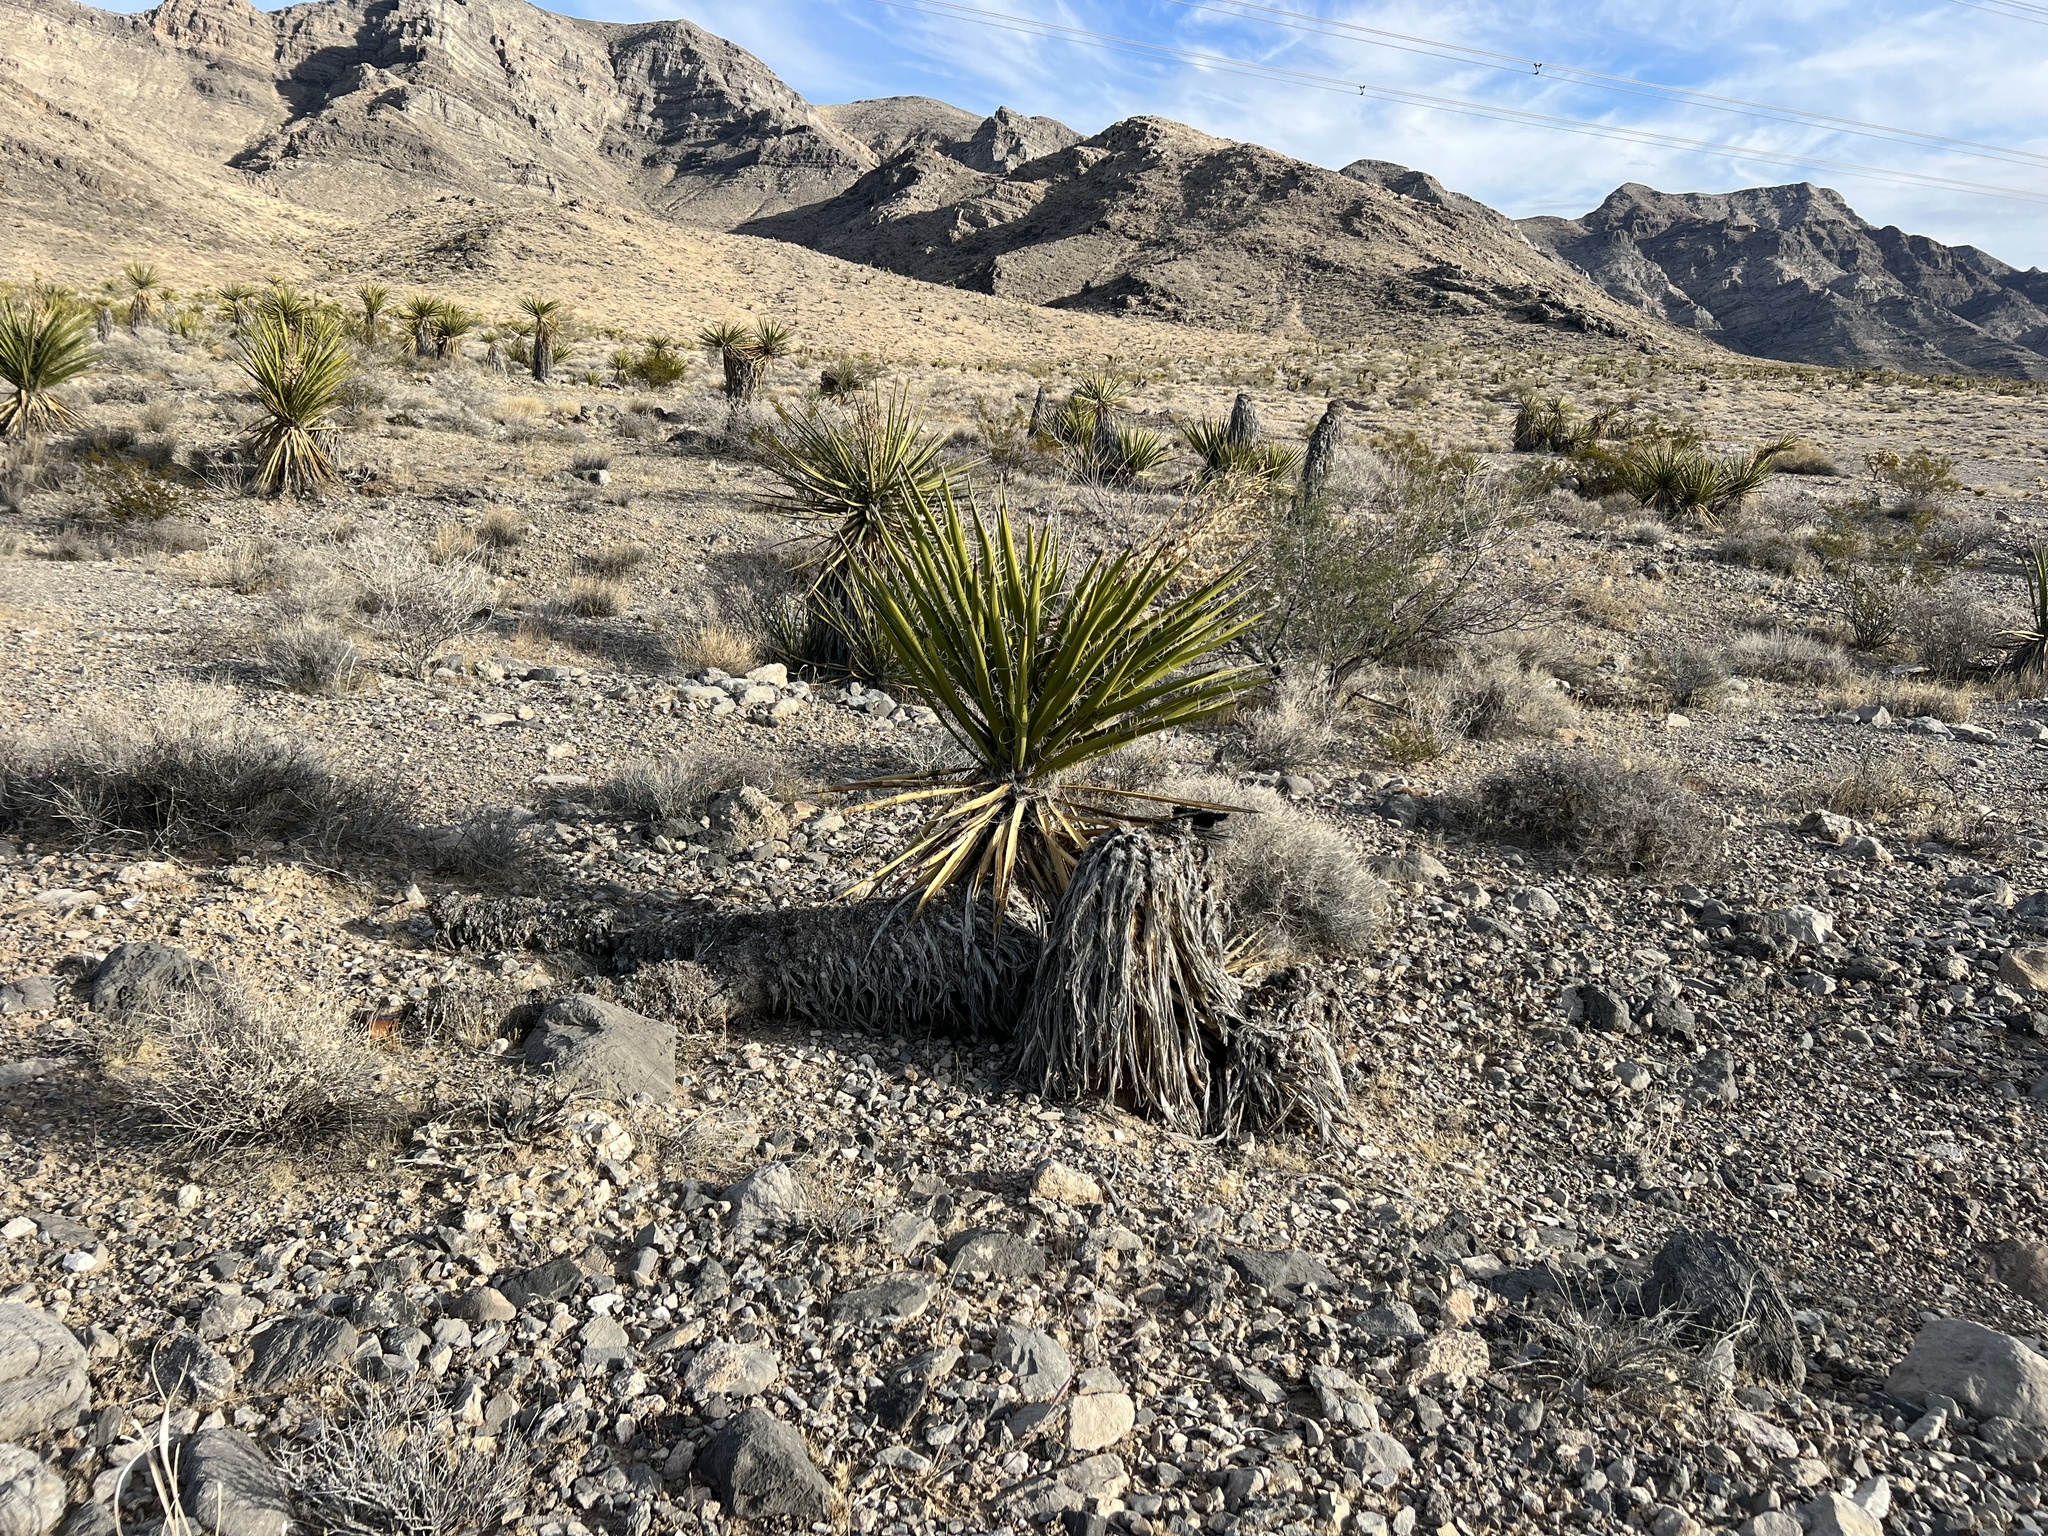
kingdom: Plantae
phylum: Tracheophyta
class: Liliopsida
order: Asparagales
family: Asparagaceae
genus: Yucca
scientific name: Yucca schidigera
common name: Mojave yucca
